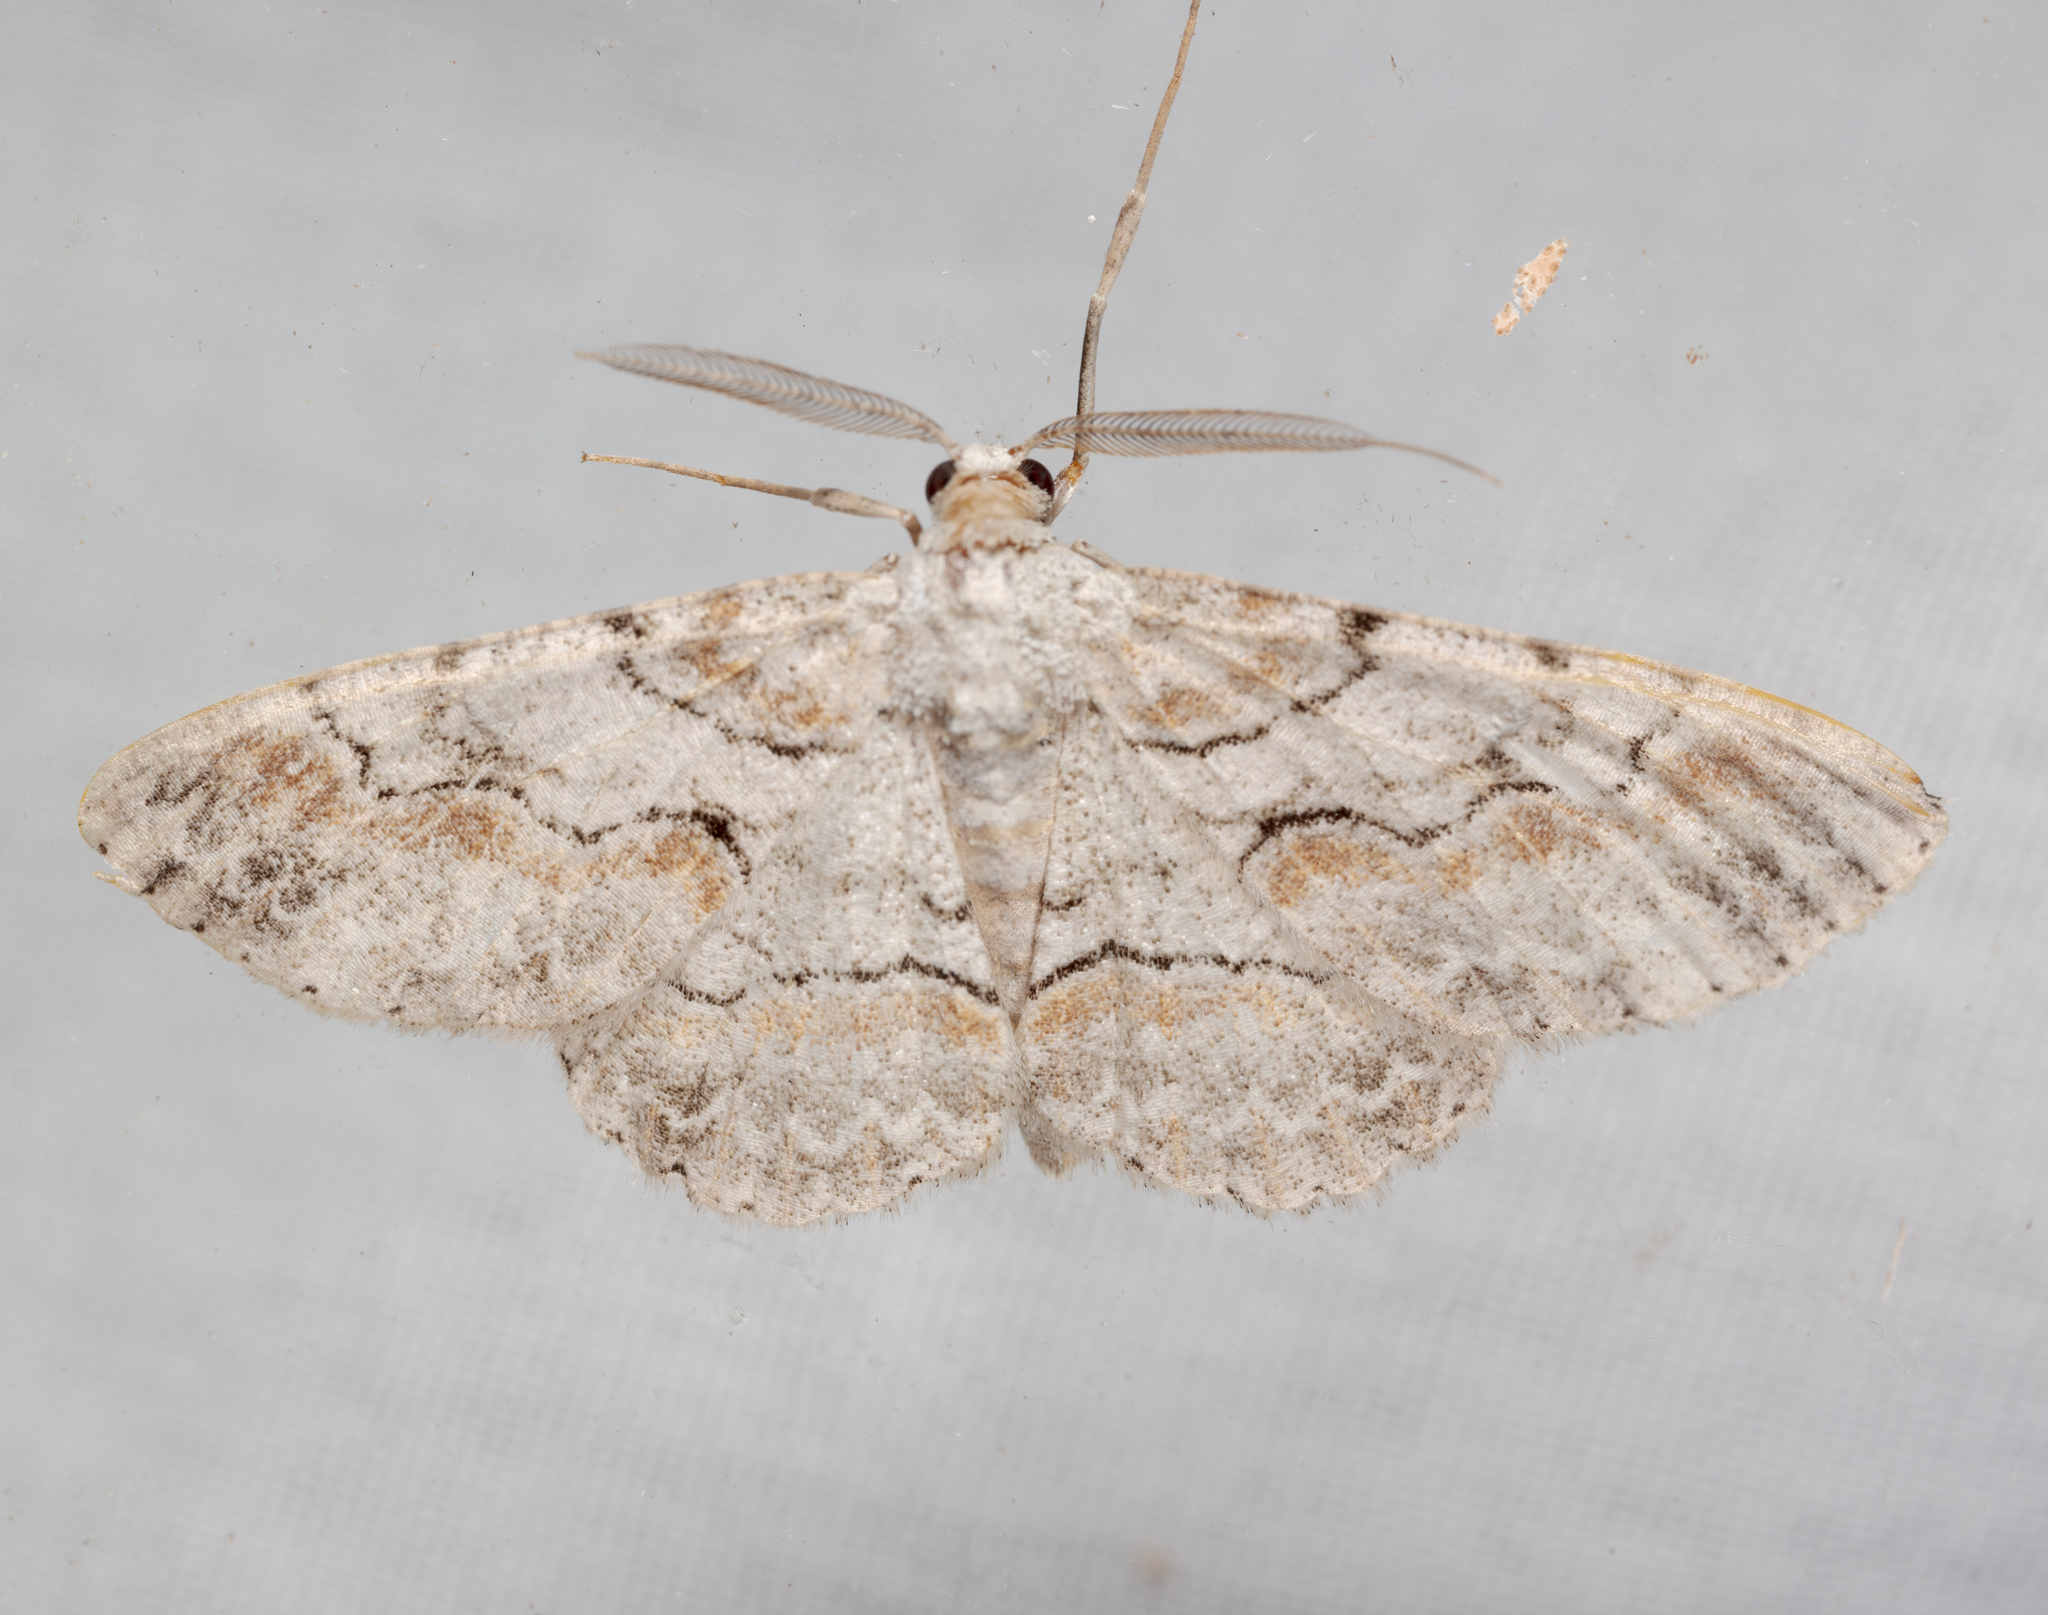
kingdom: Animalia
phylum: Arthropoda
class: Insecta
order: Lepidoptera
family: Geometridae
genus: Iridopsis
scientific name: Iridopsis defectaria
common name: Brown-shaded gray
